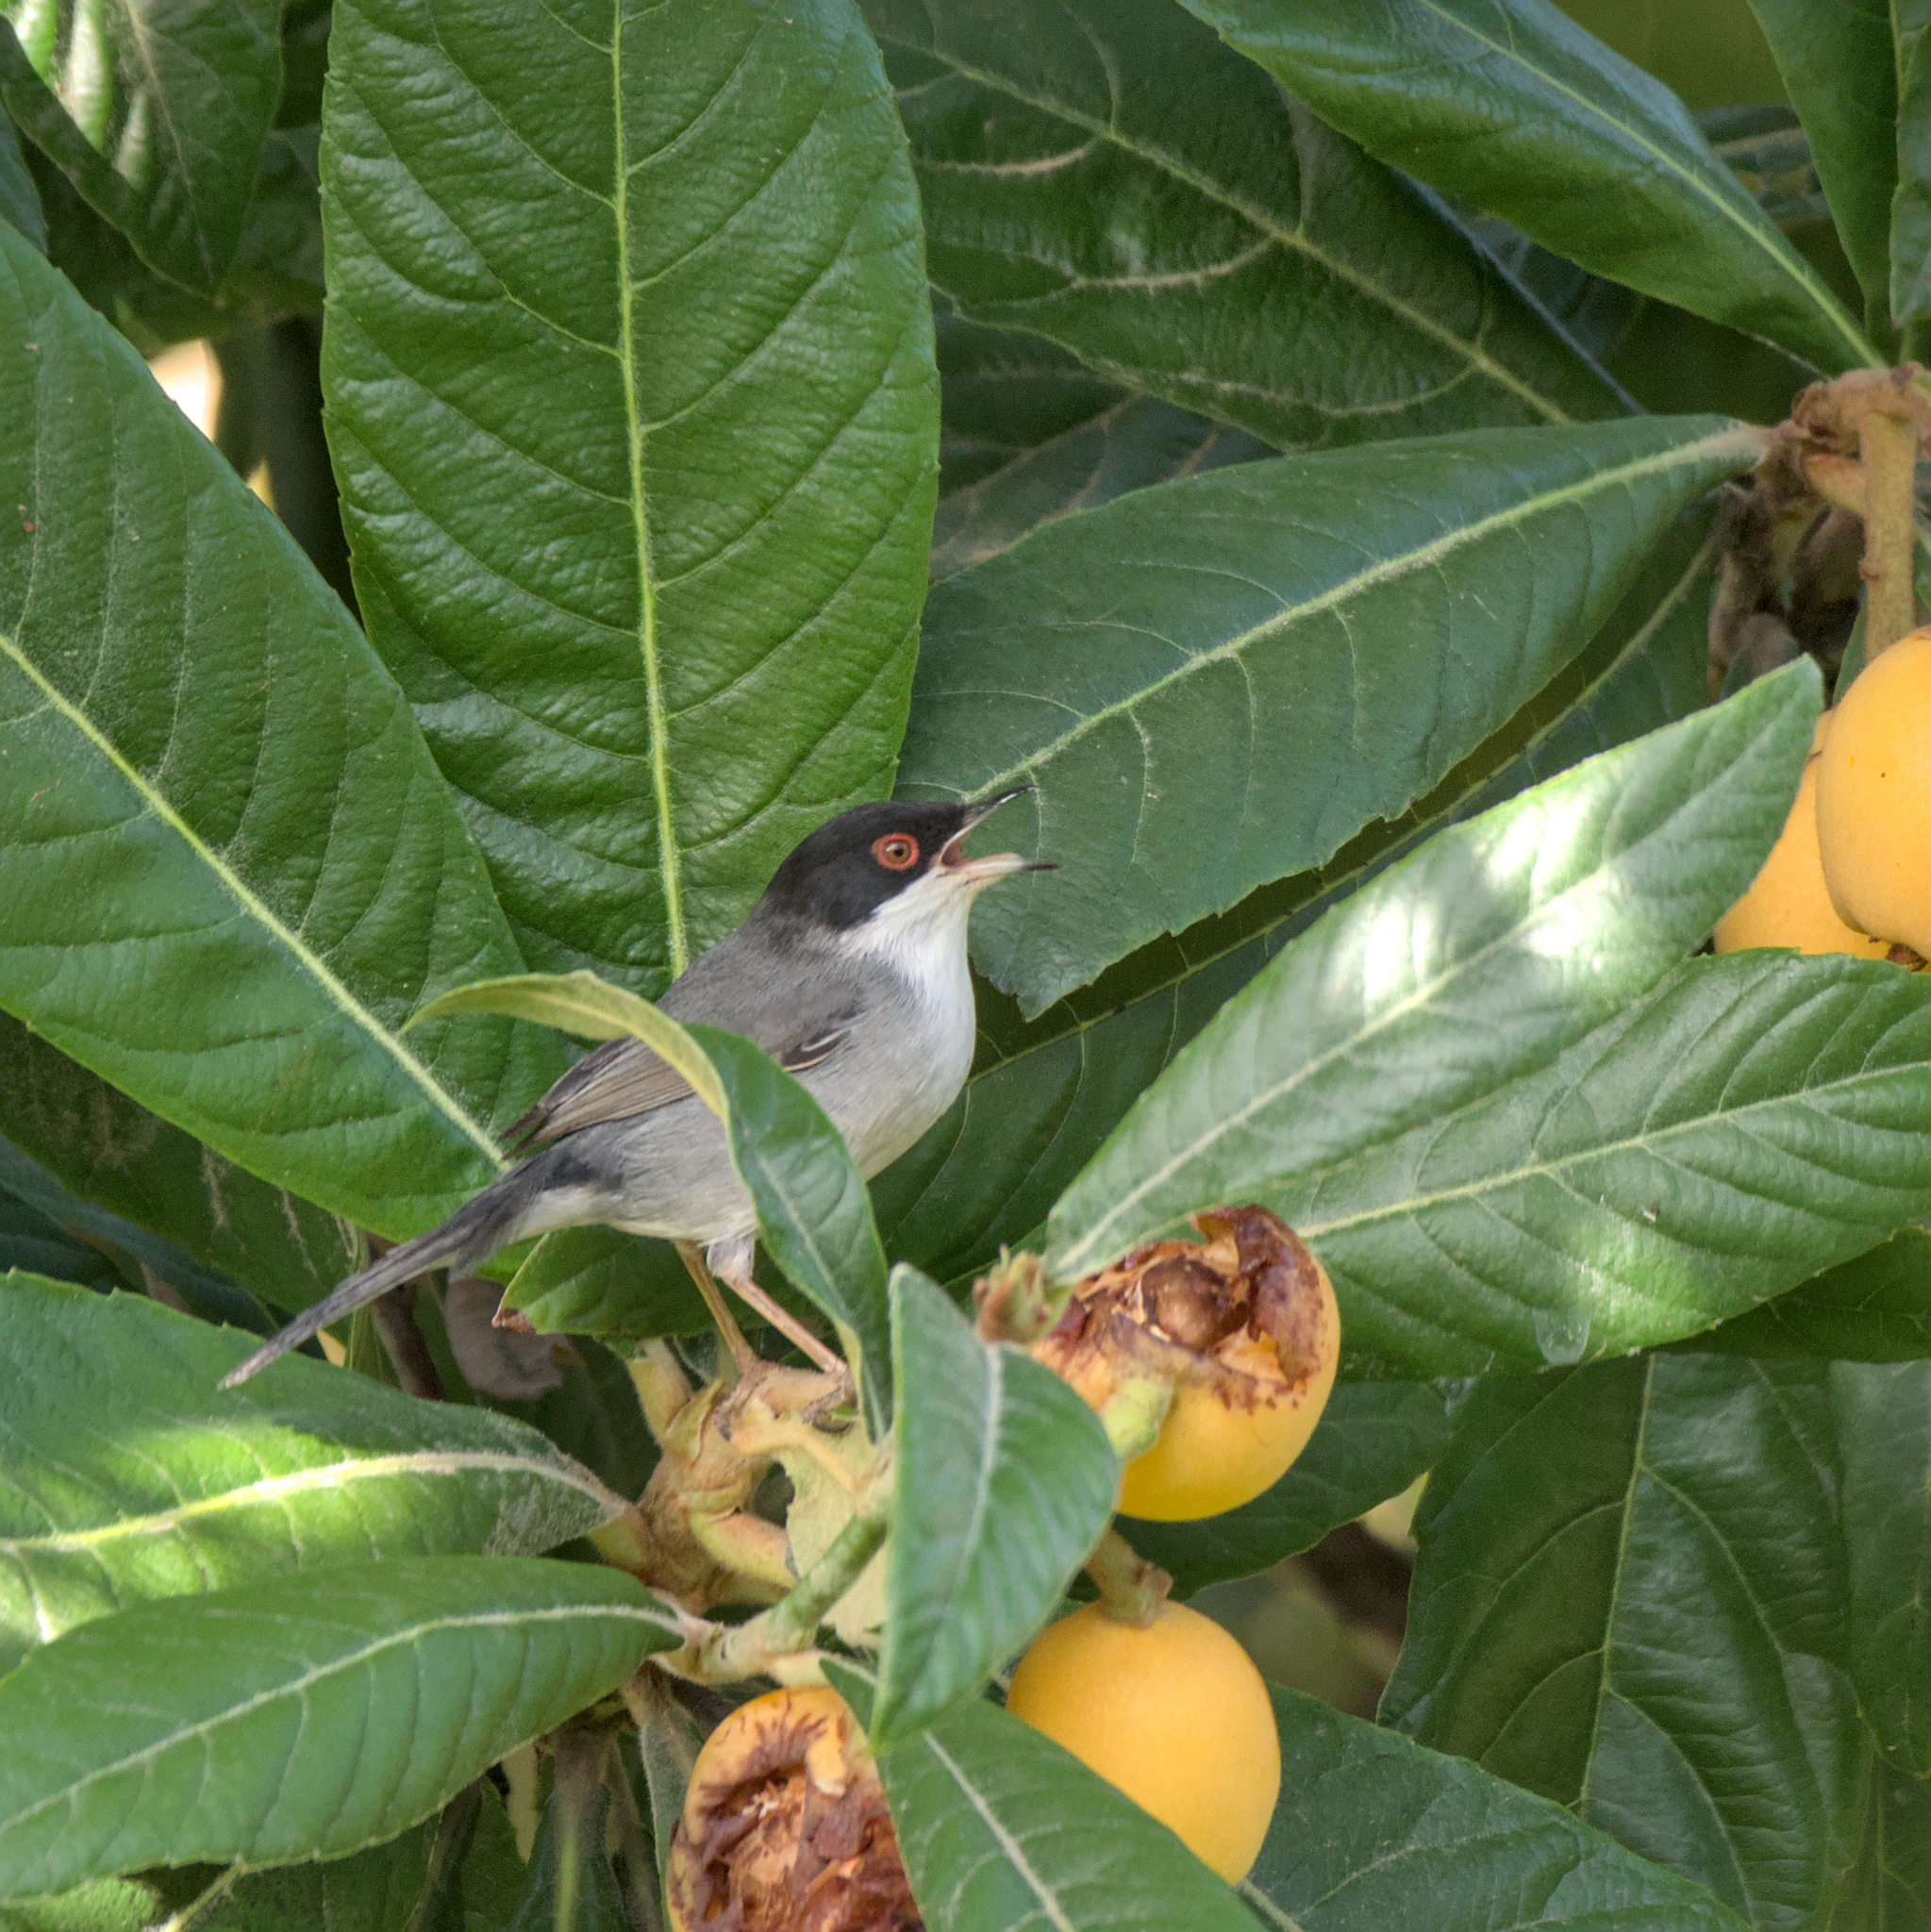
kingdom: Animalia
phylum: Chordata
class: Aves
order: Passeriformes
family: Sylviidae
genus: Curruca
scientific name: Curruca melanocephala
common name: Sardinian warbler
